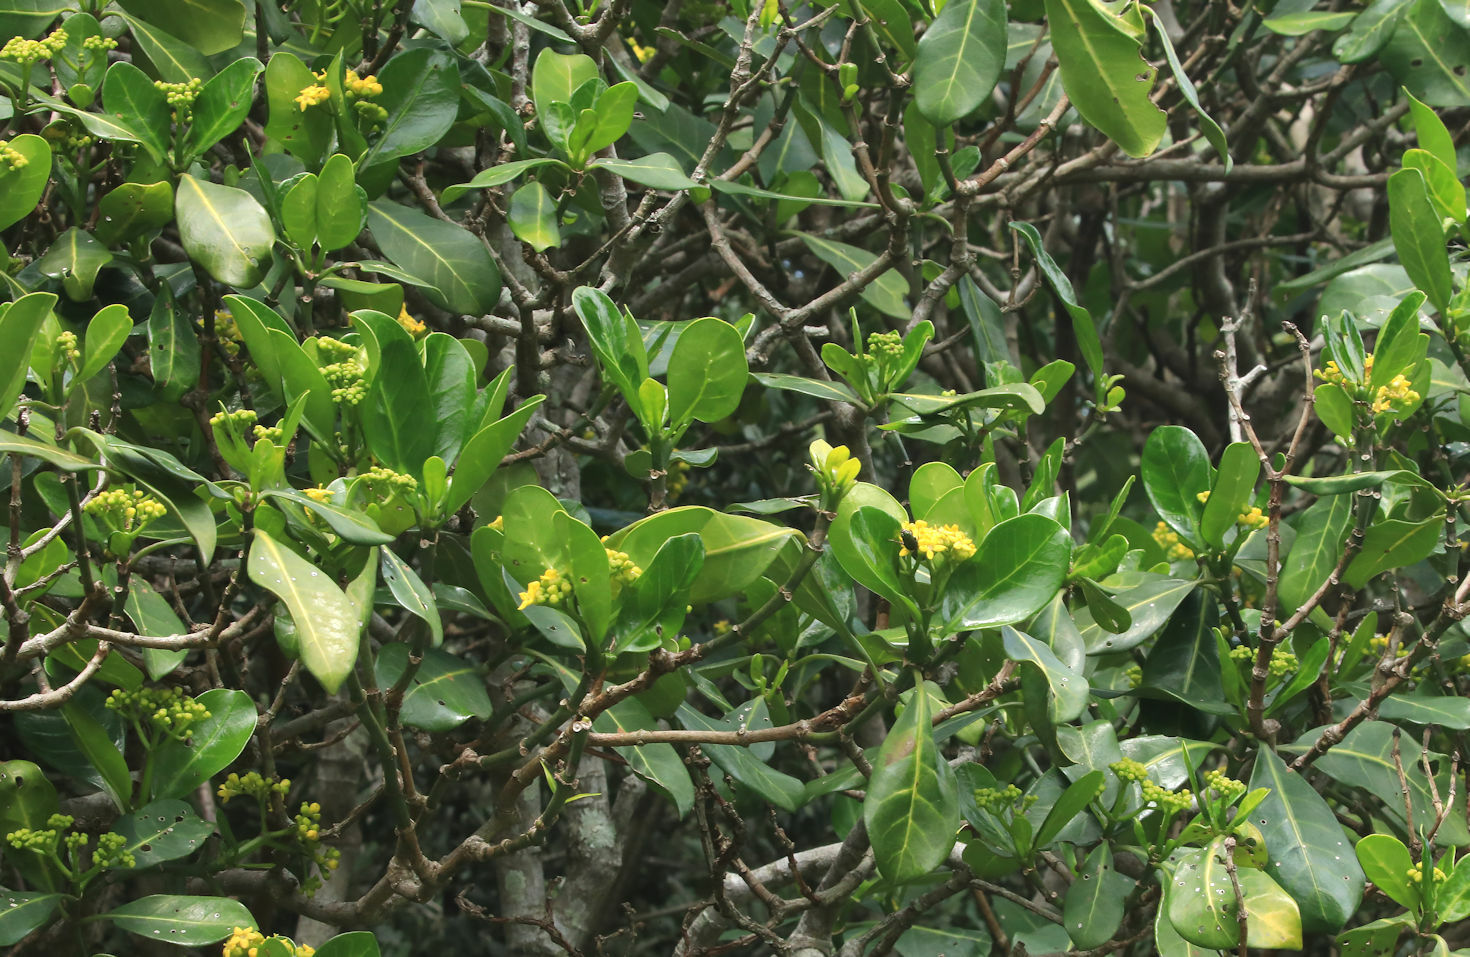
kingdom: Plantae
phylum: Tracheophyta
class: Magnoliopsida
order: Gentianales
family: Rubiaceae
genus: Psychotria
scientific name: Psychotria capensis
